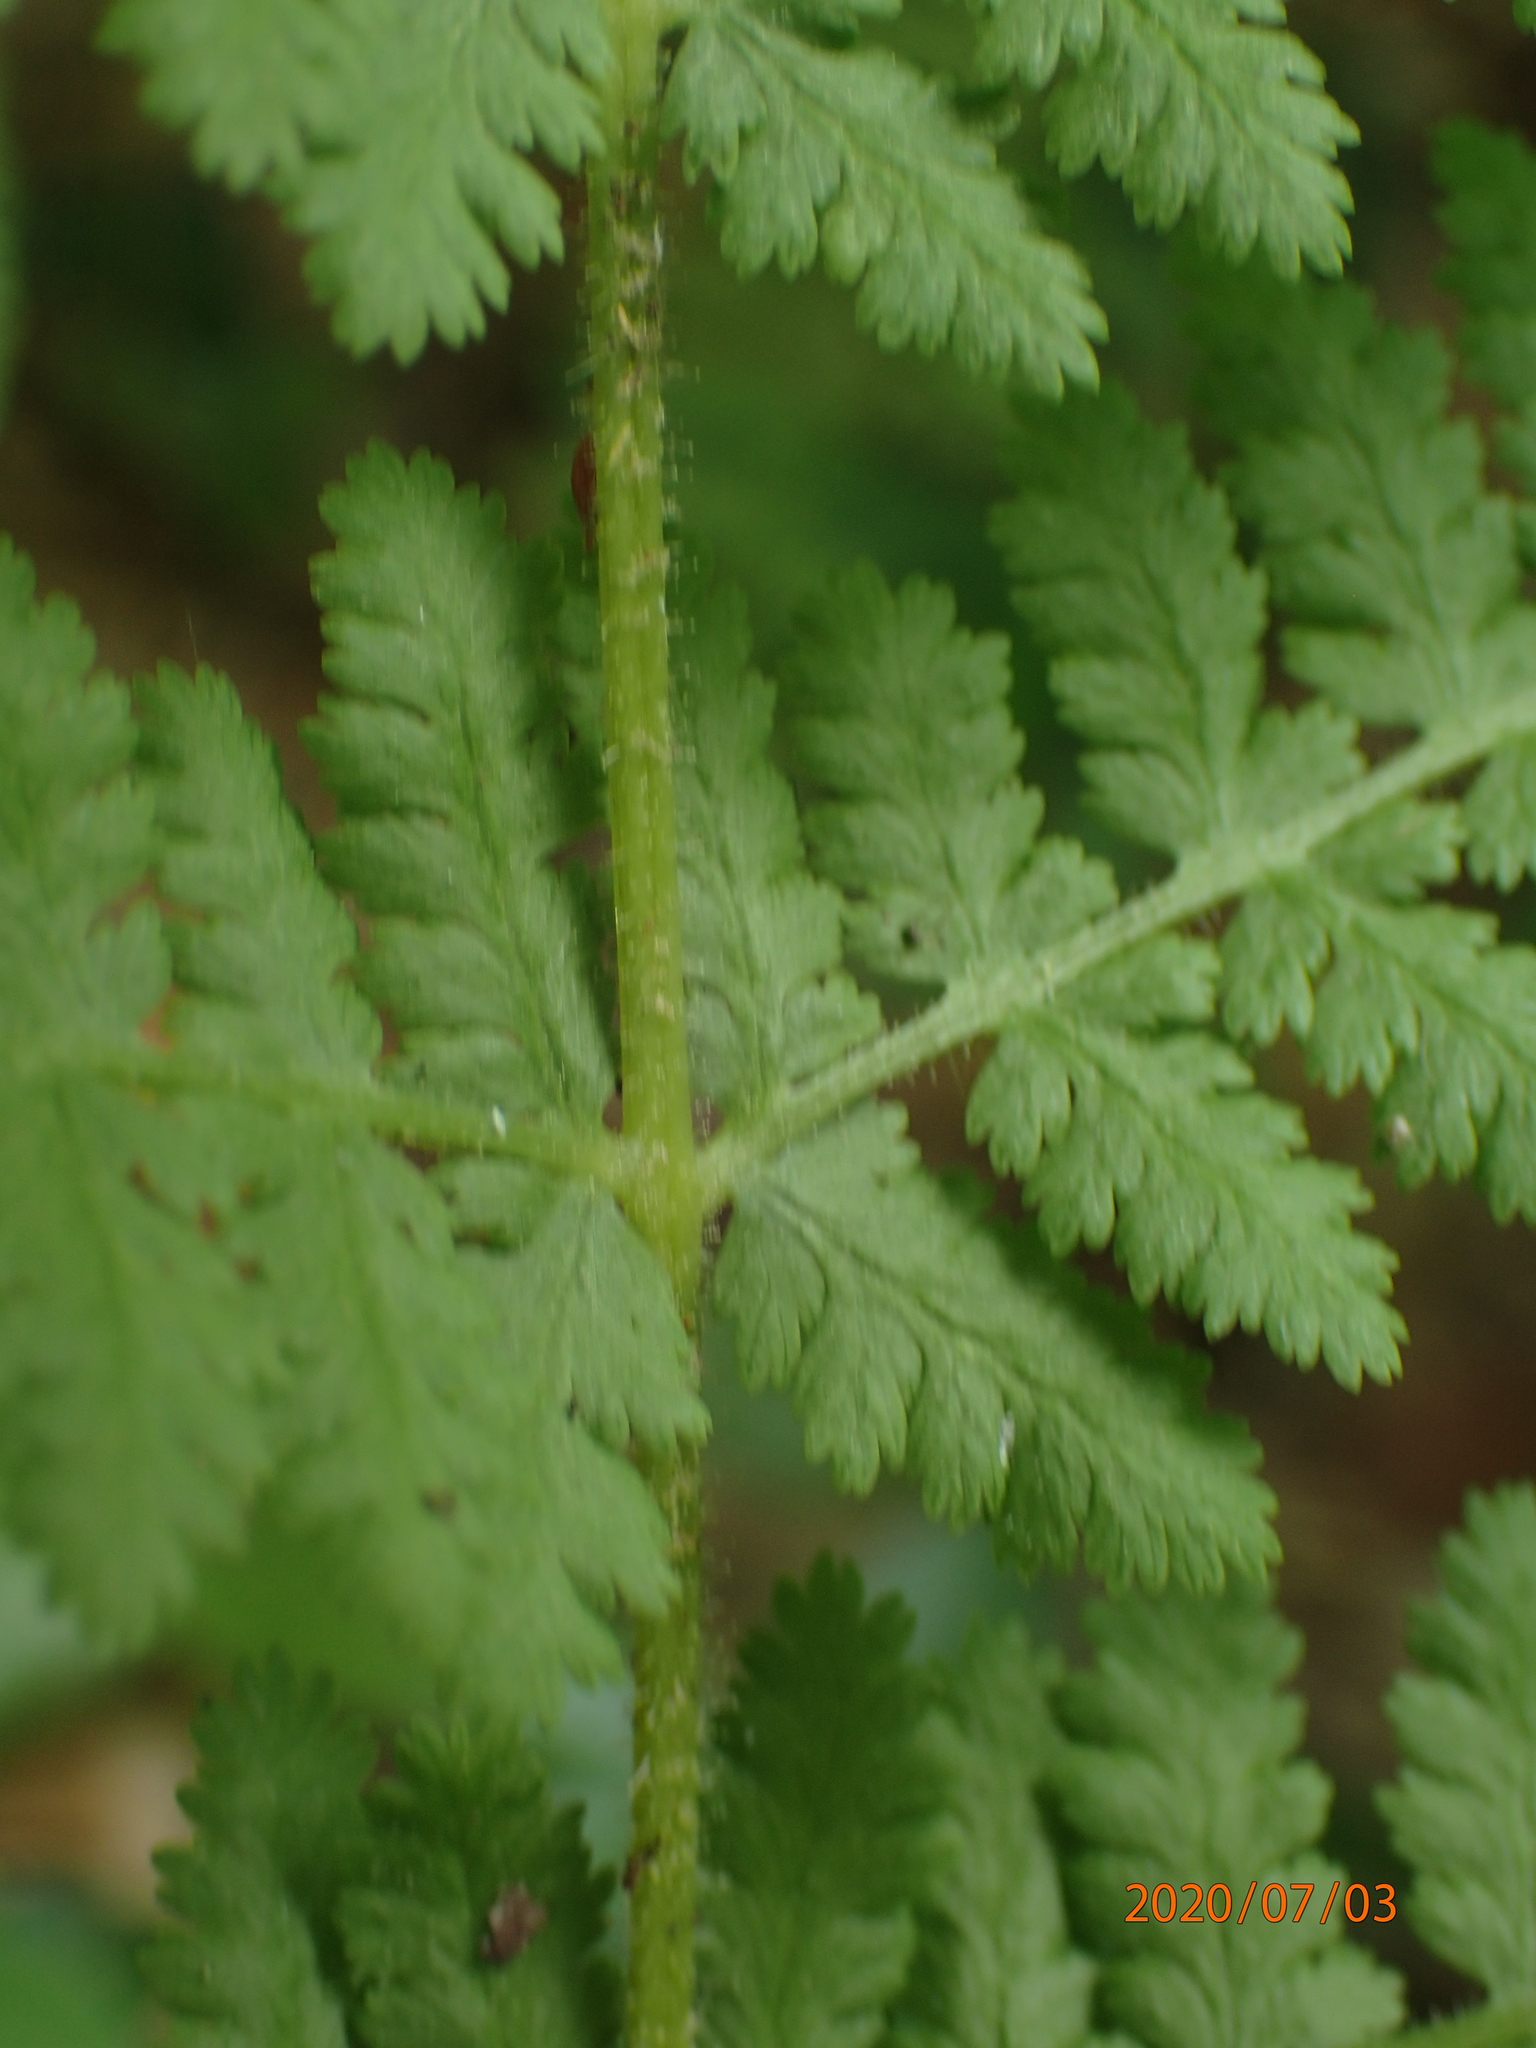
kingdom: Plantae
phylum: Tracheophyta
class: Polypodiopsida
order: Polypodiales
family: Dennstaedtiaceae
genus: Sitobolium
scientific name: Sitobolium punctilobum
